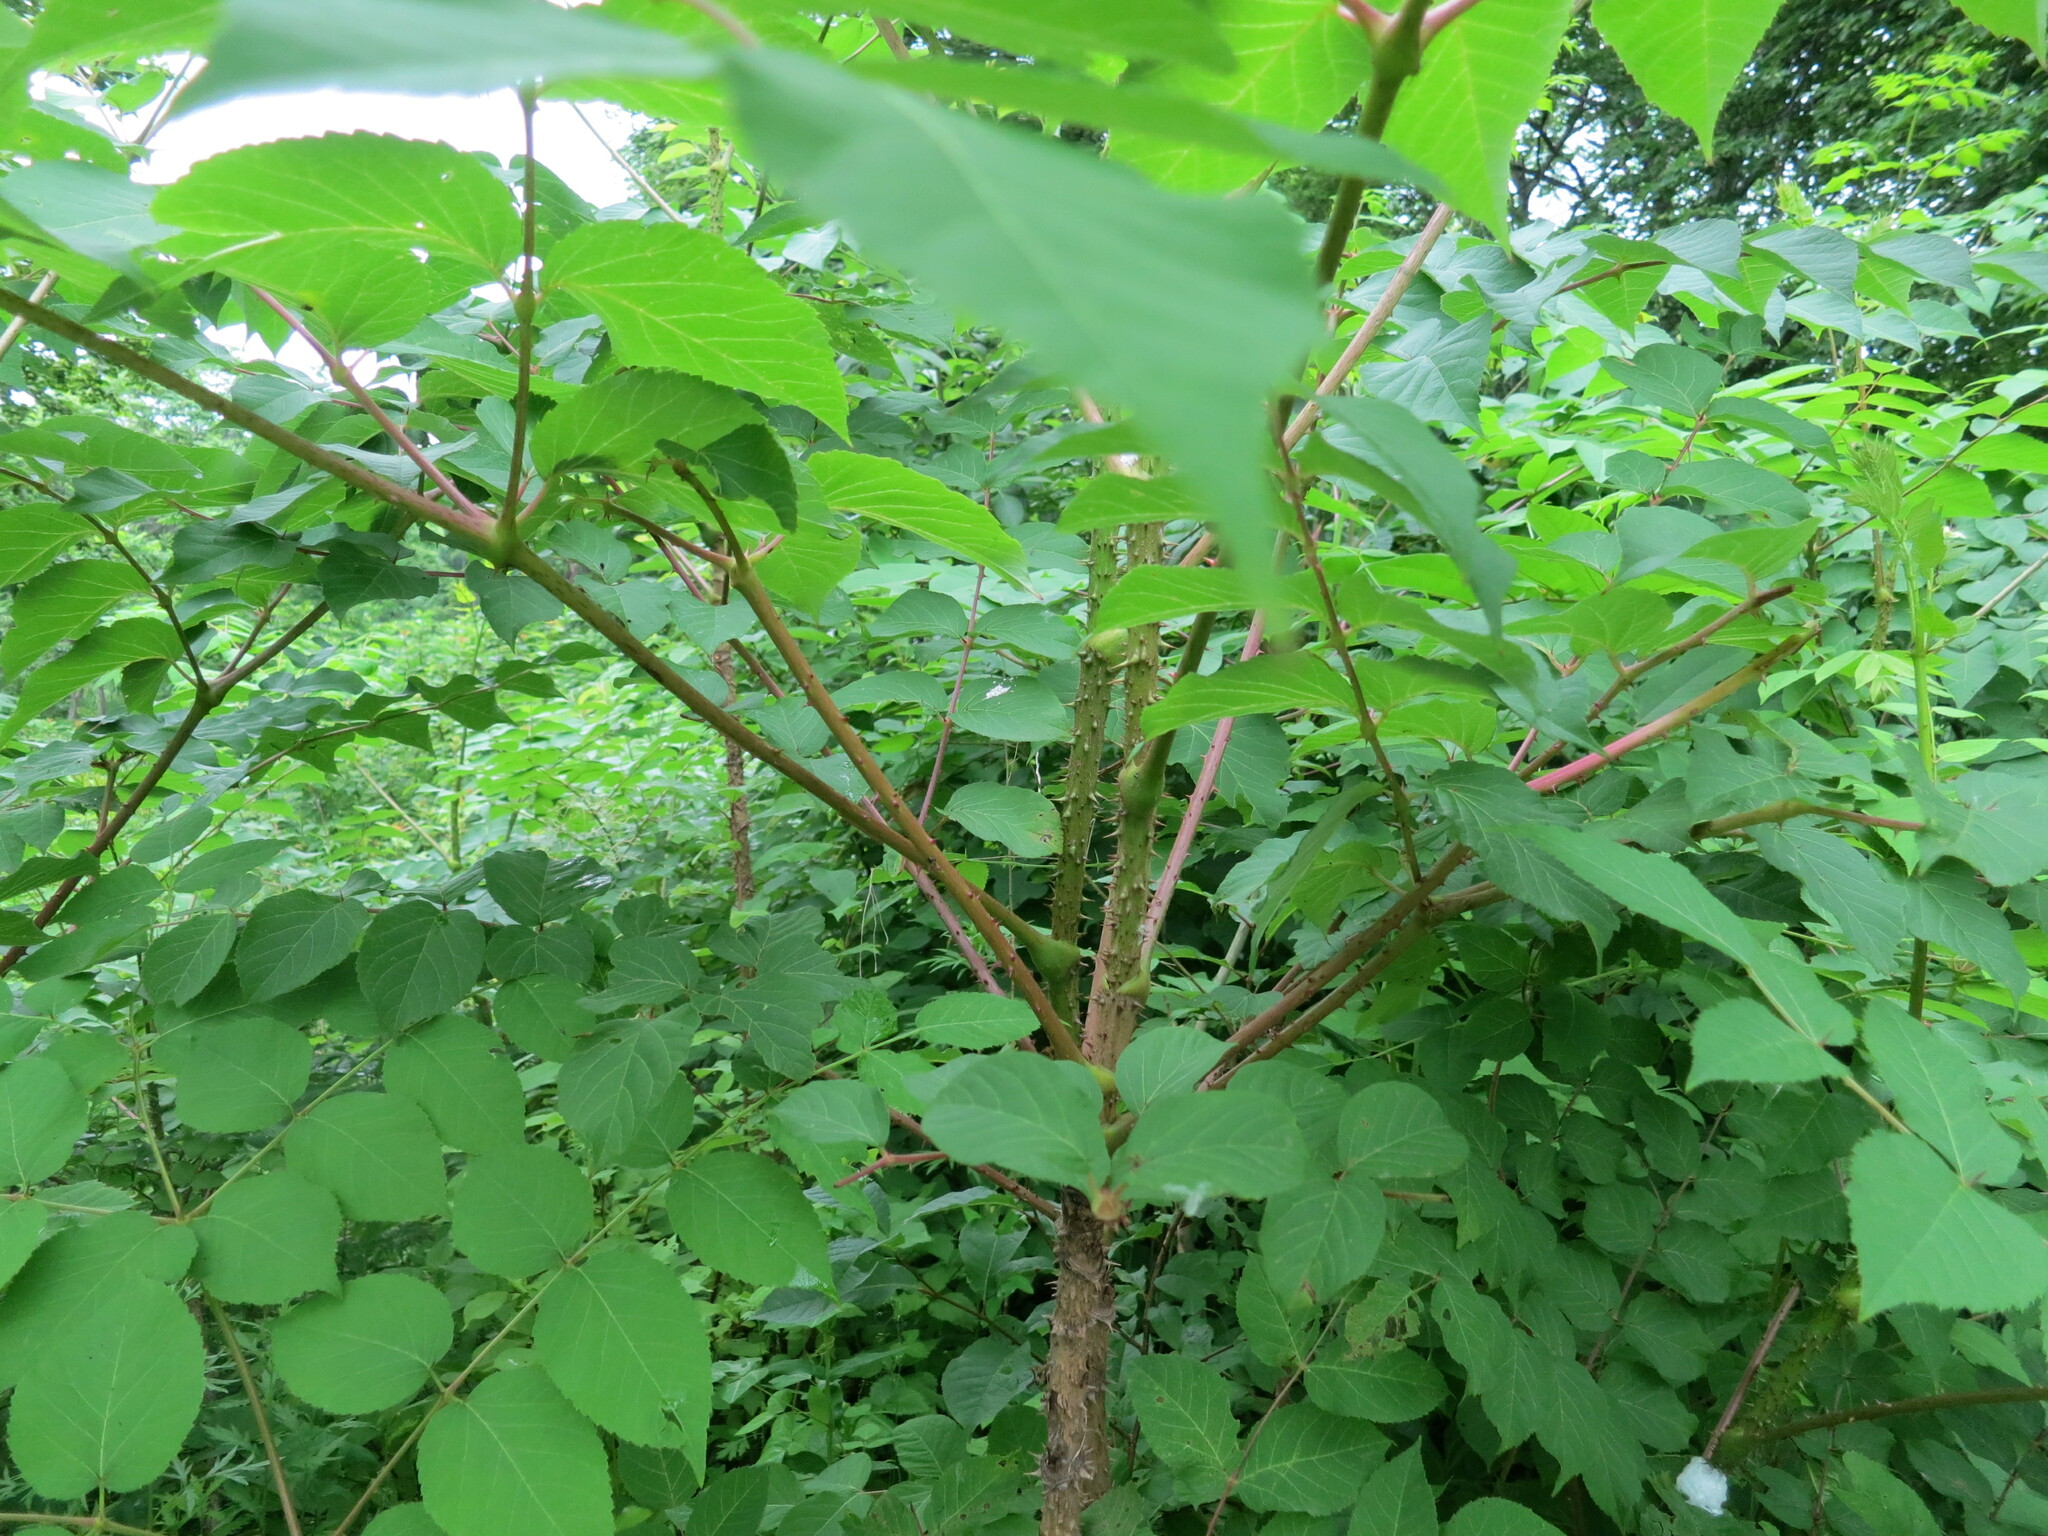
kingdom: Plantae
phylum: Tracheophyta
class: Magnoliopsida
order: Apiales
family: Araliaceae
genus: Aralia
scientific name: Aralia elata
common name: Japanese angelica-tree
